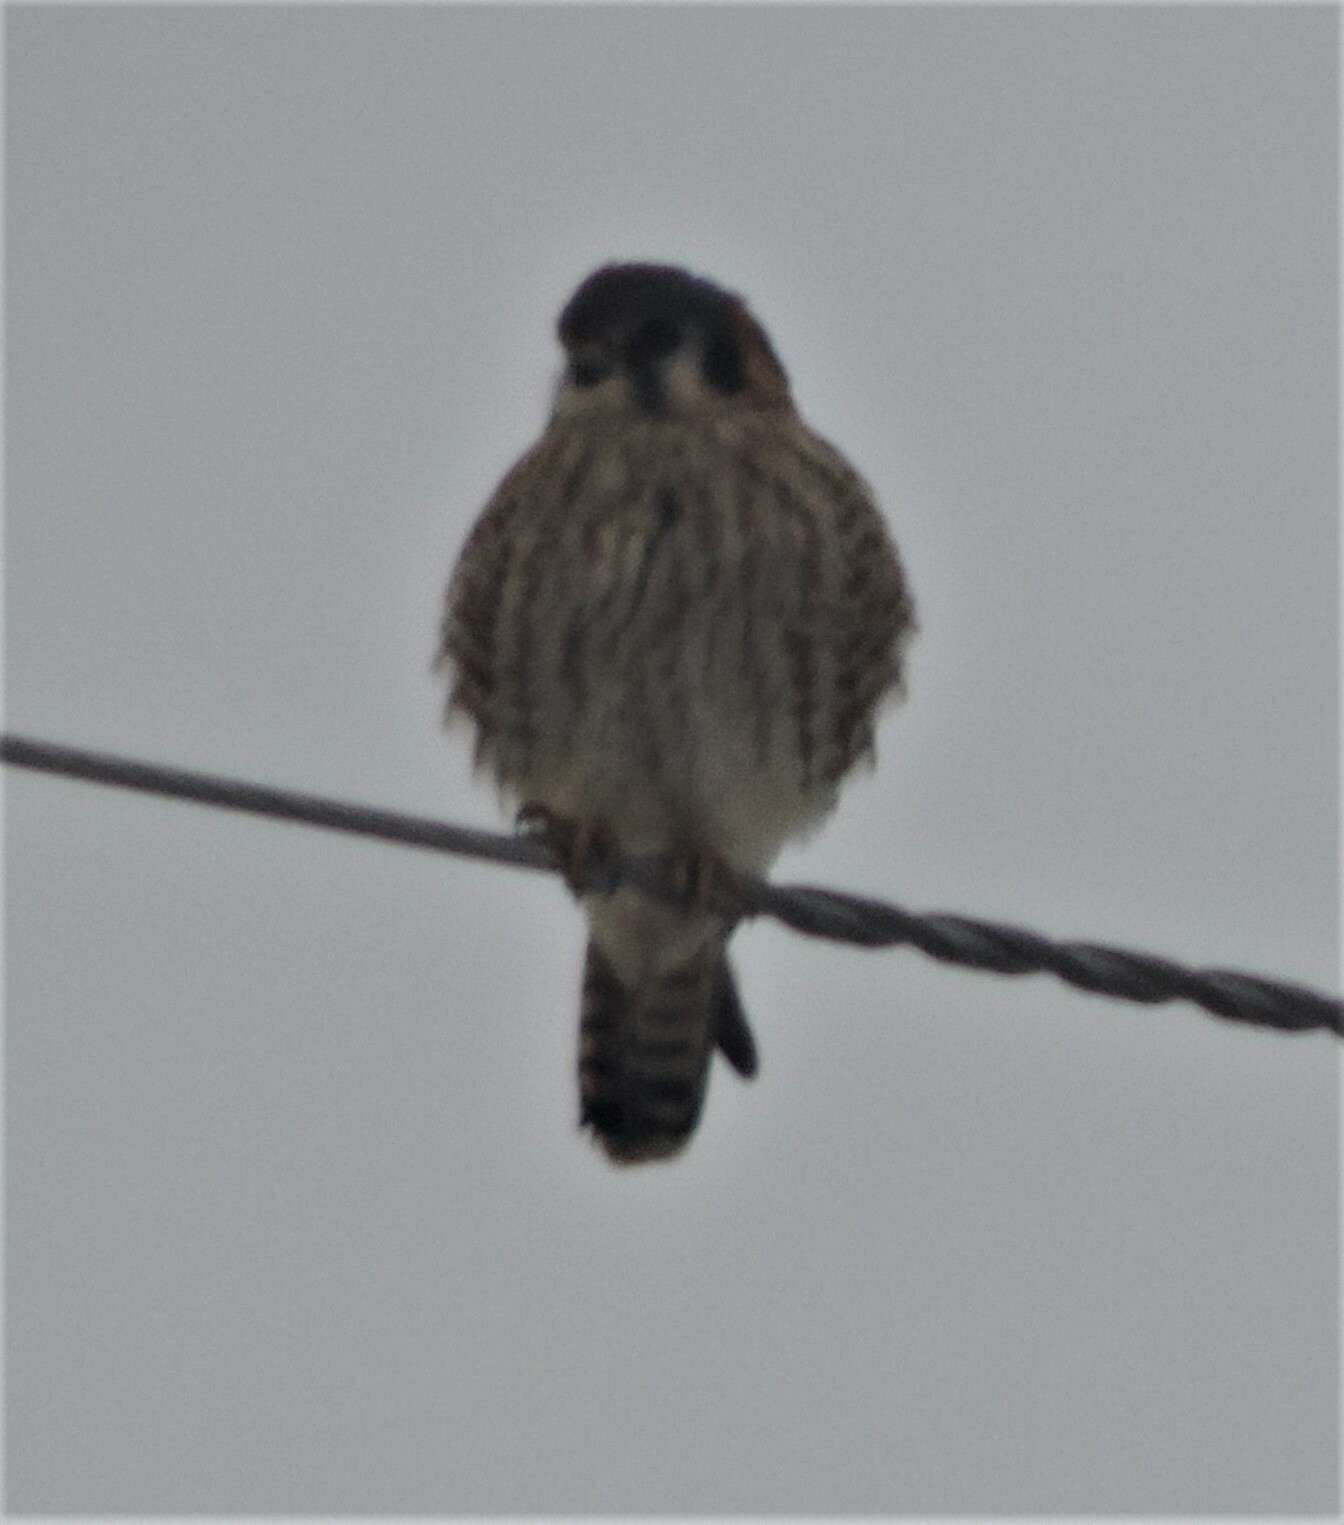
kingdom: Animalia
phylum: Chordata
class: Aves
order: Falconiformes
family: Falconidae
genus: Falco
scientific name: Falco sparverius
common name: American kestrel
